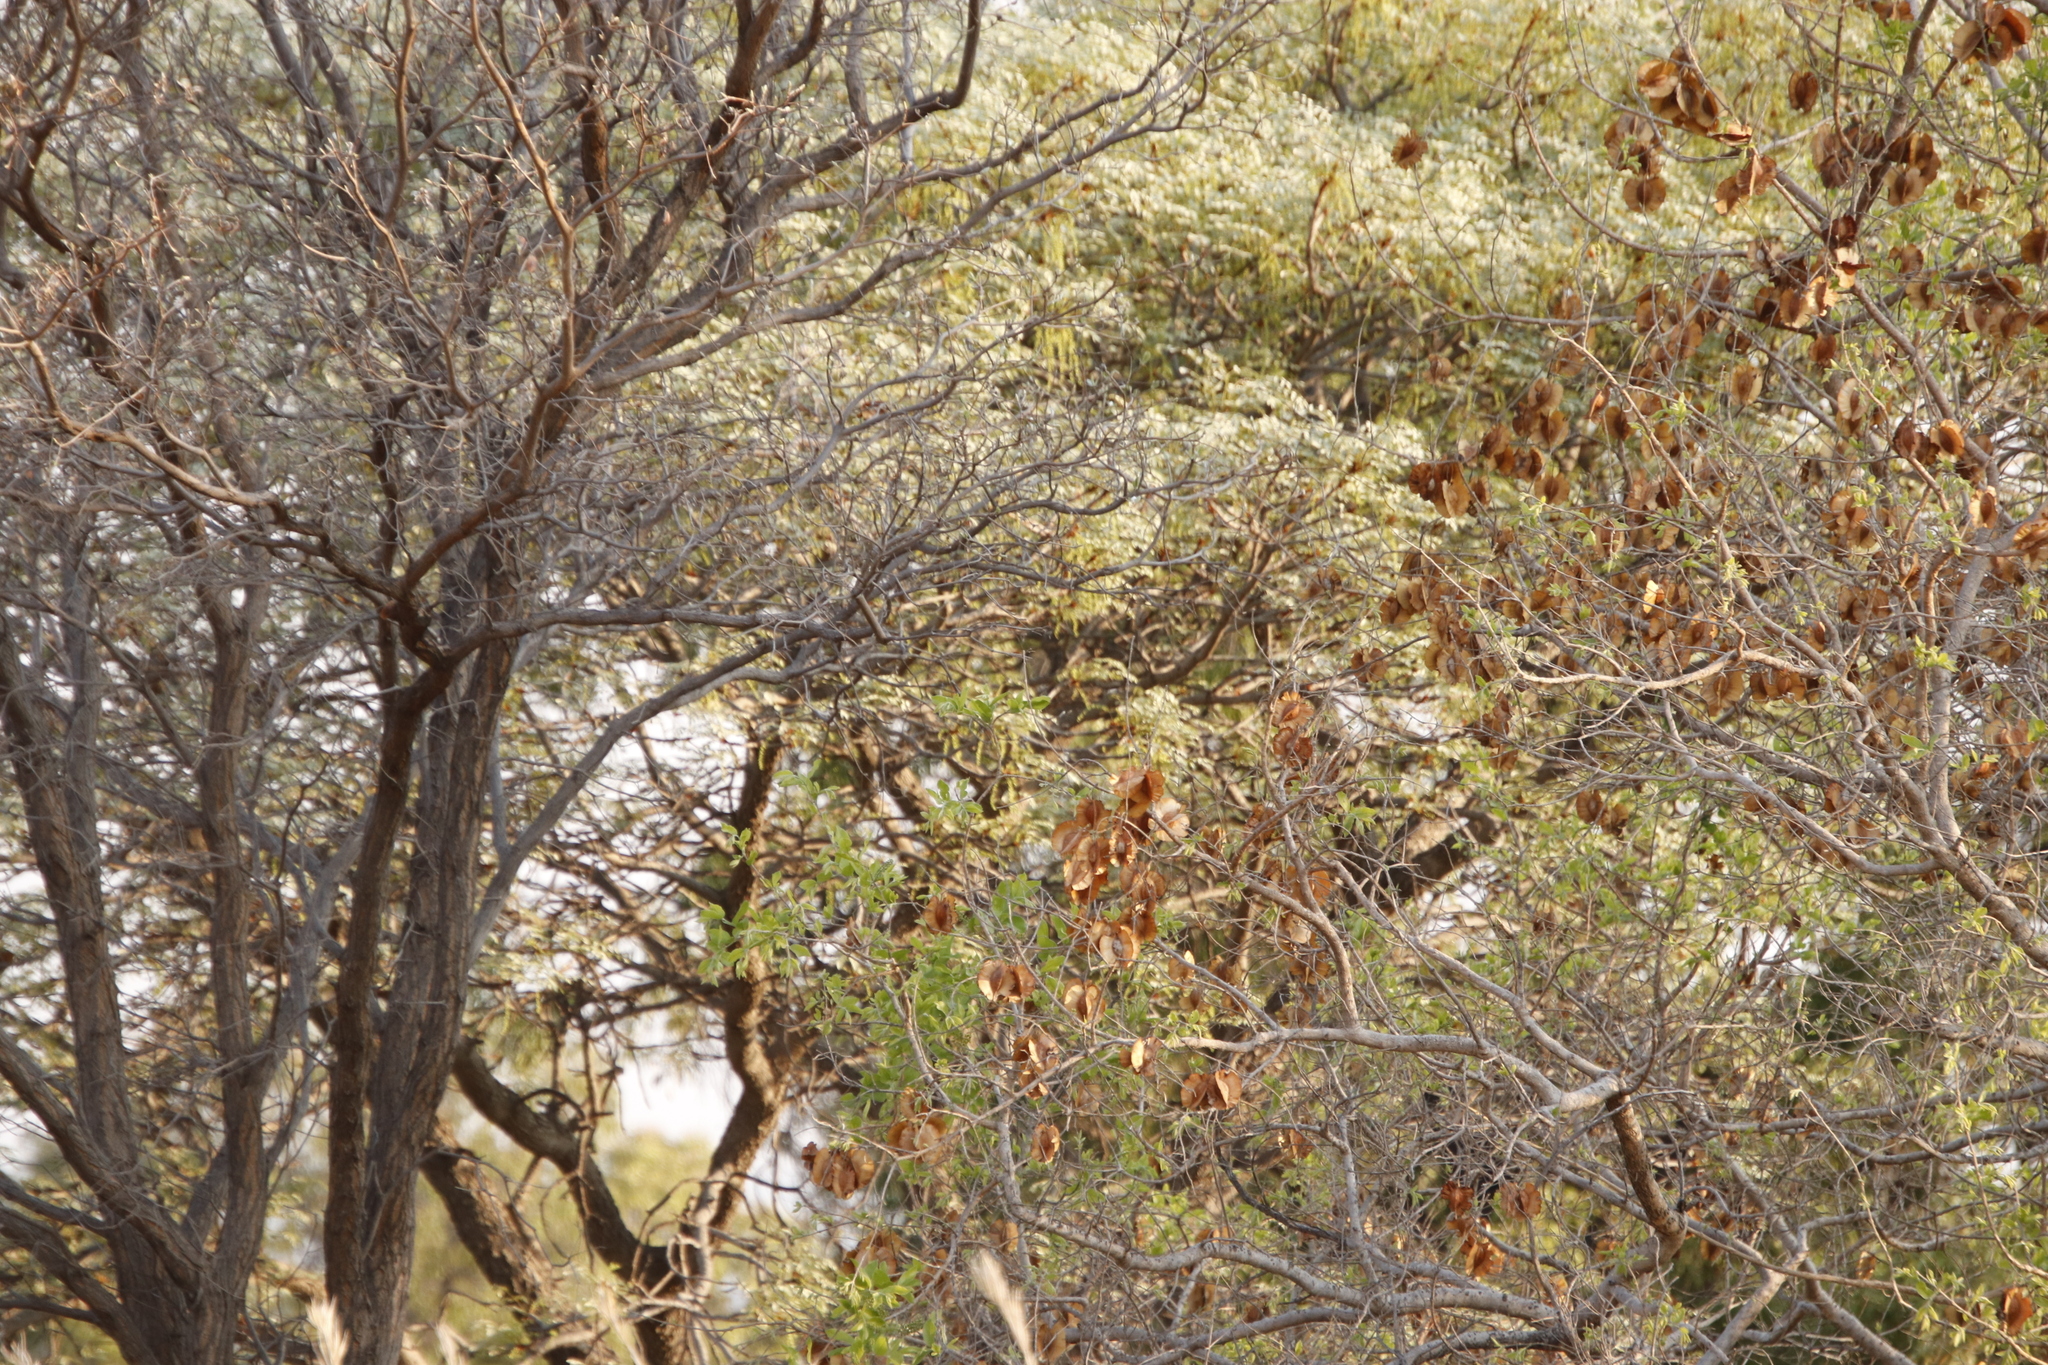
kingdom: Plantae
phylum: Tracheophyta
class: Magnoliopsida
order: Myrtales
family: Combretaceae
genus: Combretum
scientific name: Combretum zeyheri
